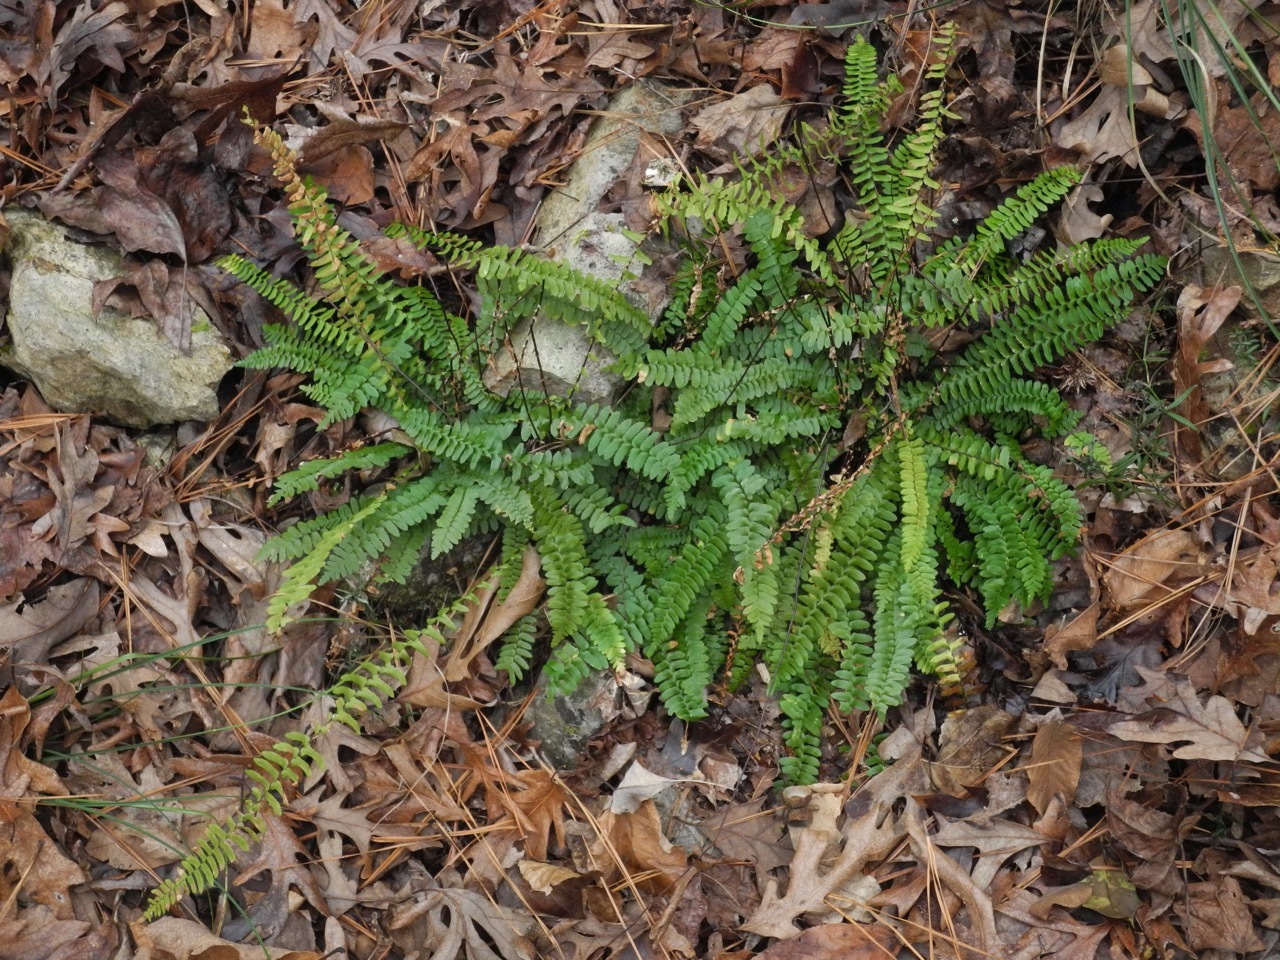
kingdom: Plantae
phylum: Tracheophyta
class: Polypodiopsida
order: Polypodiales
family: Aspleniaceae
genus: Asplenium
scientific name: Asplenium platyneuron
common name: Ebony spleenwort
